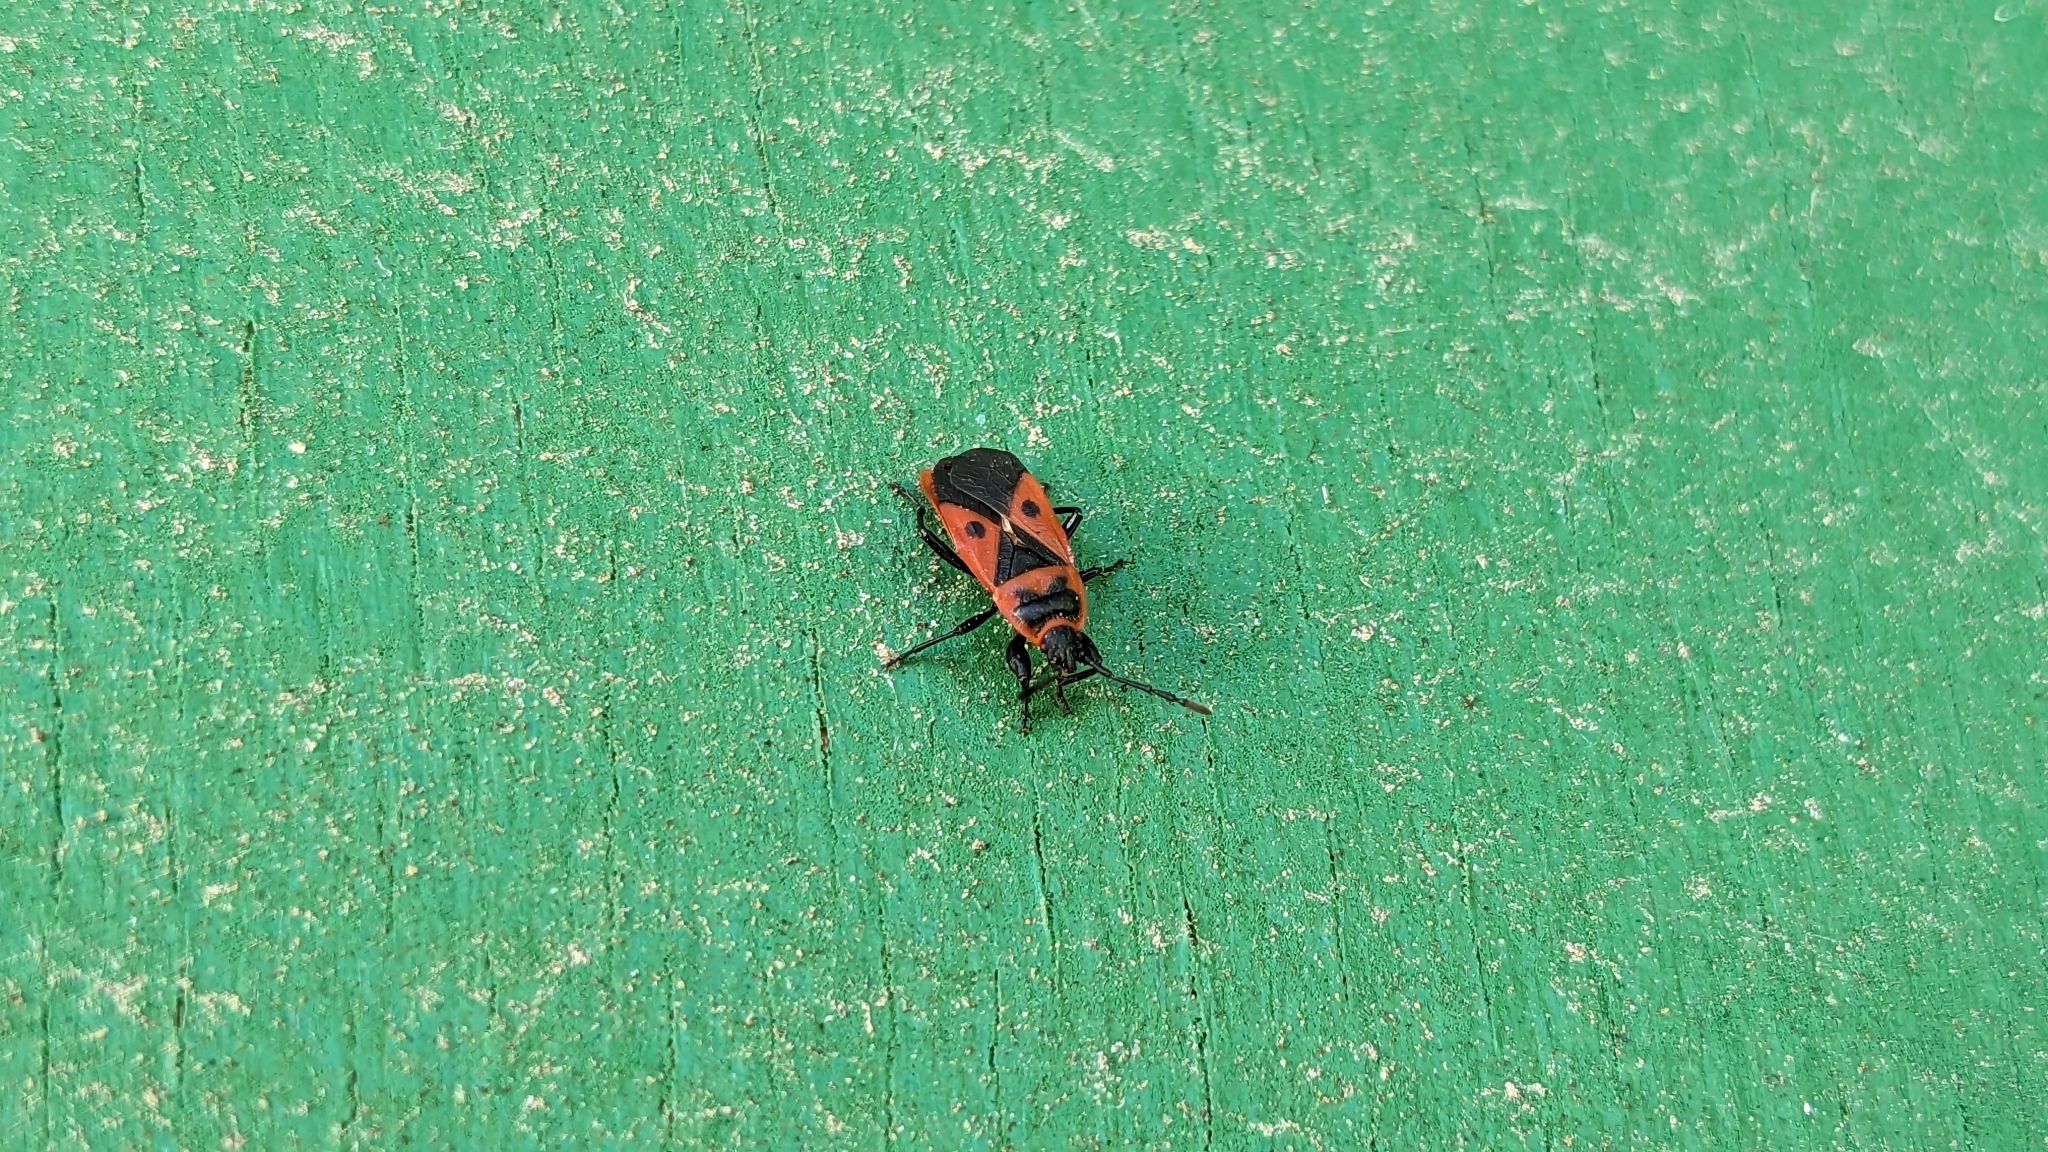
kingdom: Animalia
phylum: Arthropoda
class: Insecta
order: Hemiptera
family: Pyrrhocoridae
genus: Scantius
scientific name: Scantius aegyptius
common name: Red bug
